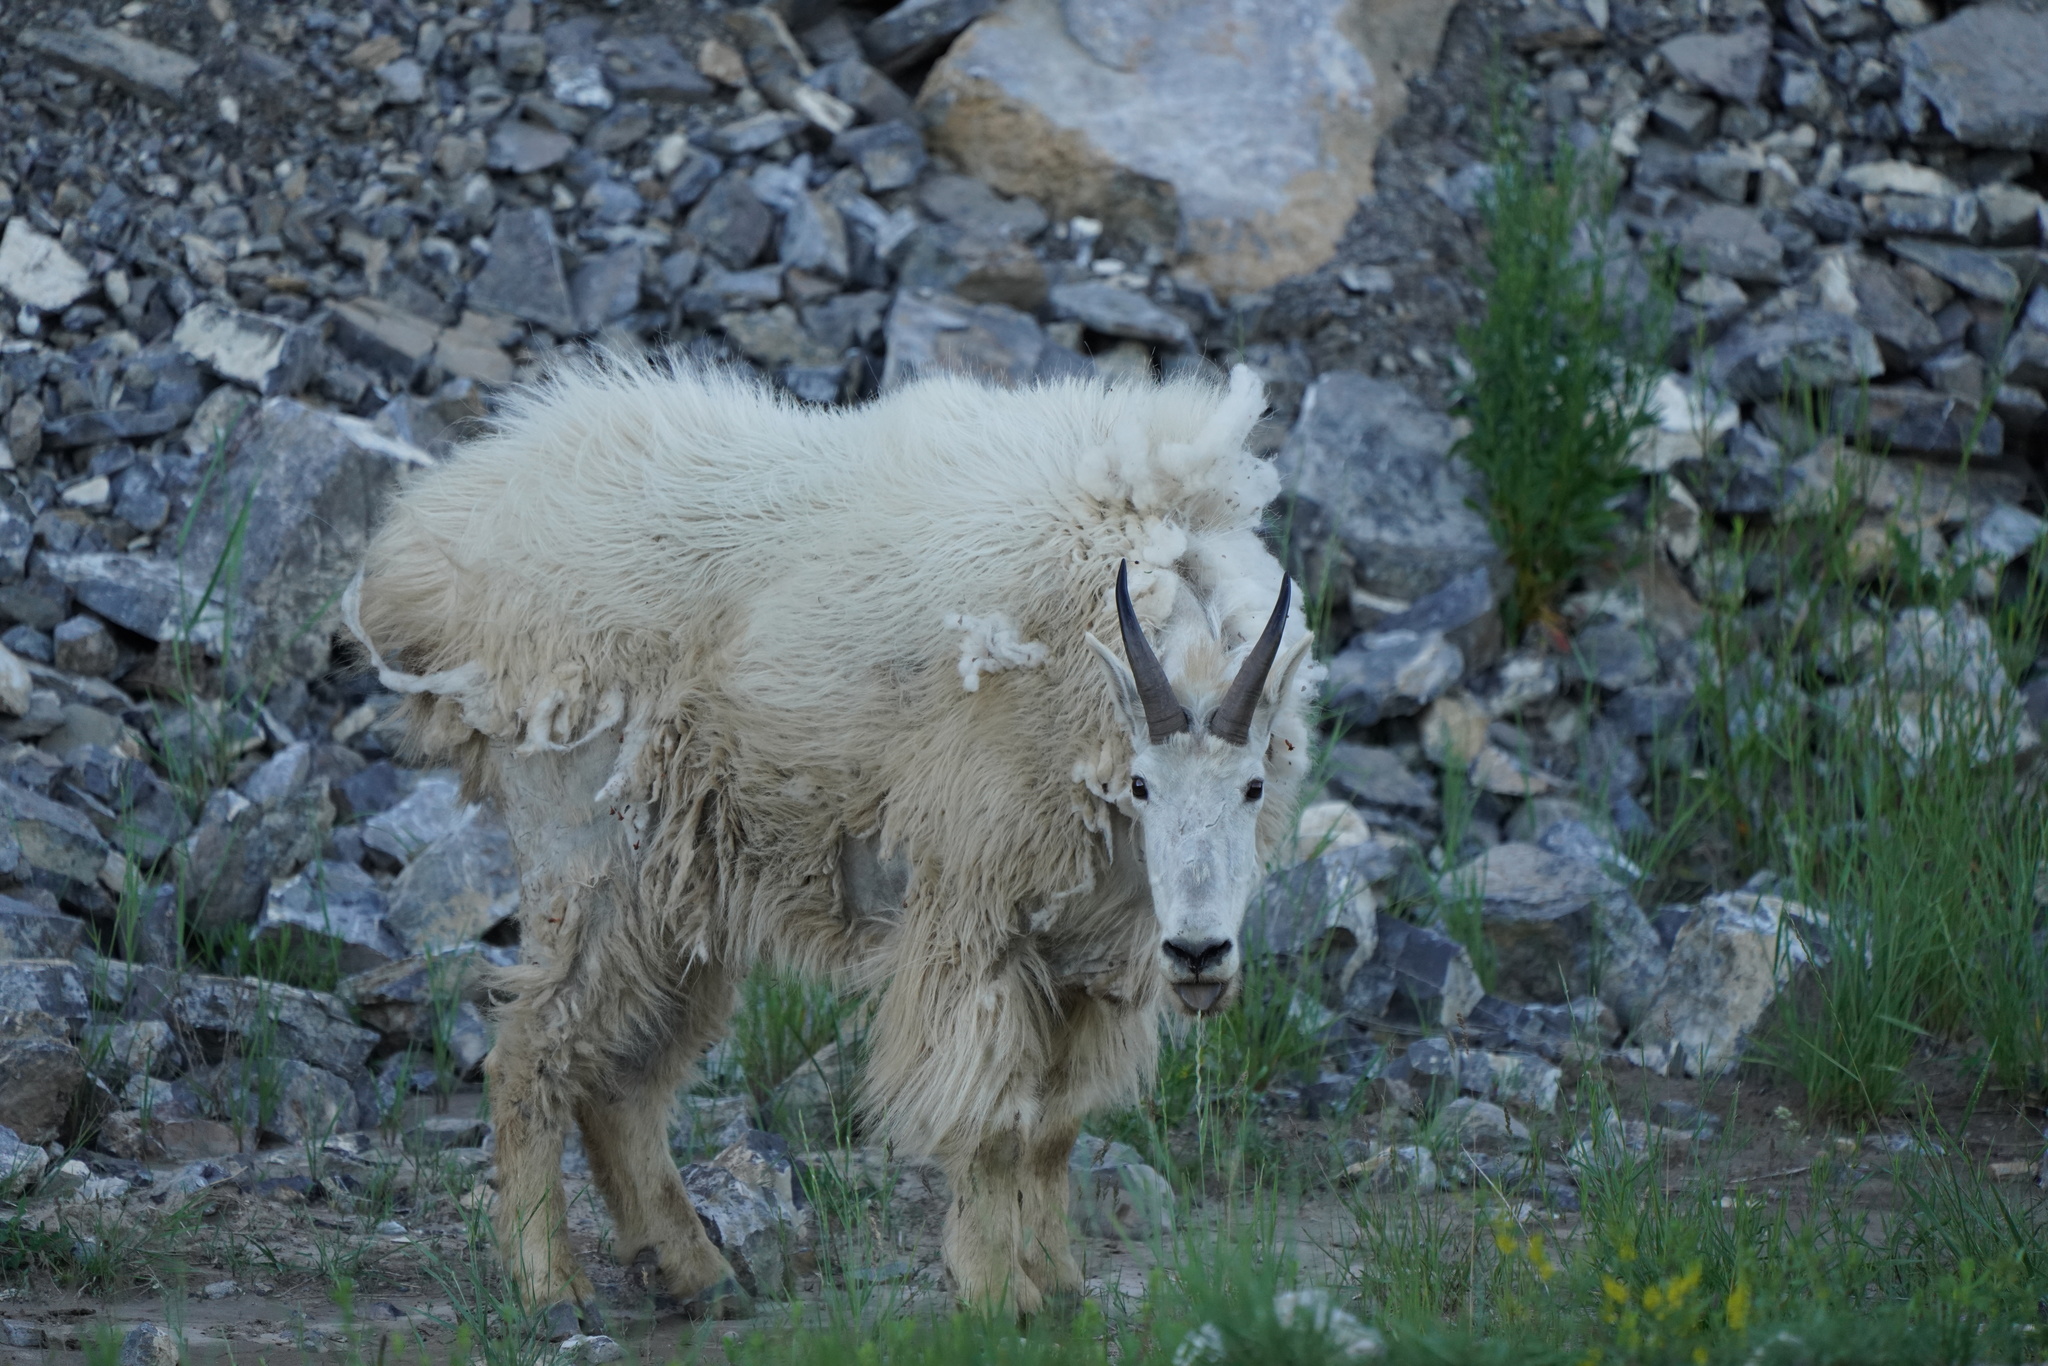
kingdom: Animalia
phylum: Chordata
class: Mammalia
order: Artiodactyla
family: Bovidae
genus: Oreamnos
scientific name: Oreamnos americanus
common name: Mountain goat
